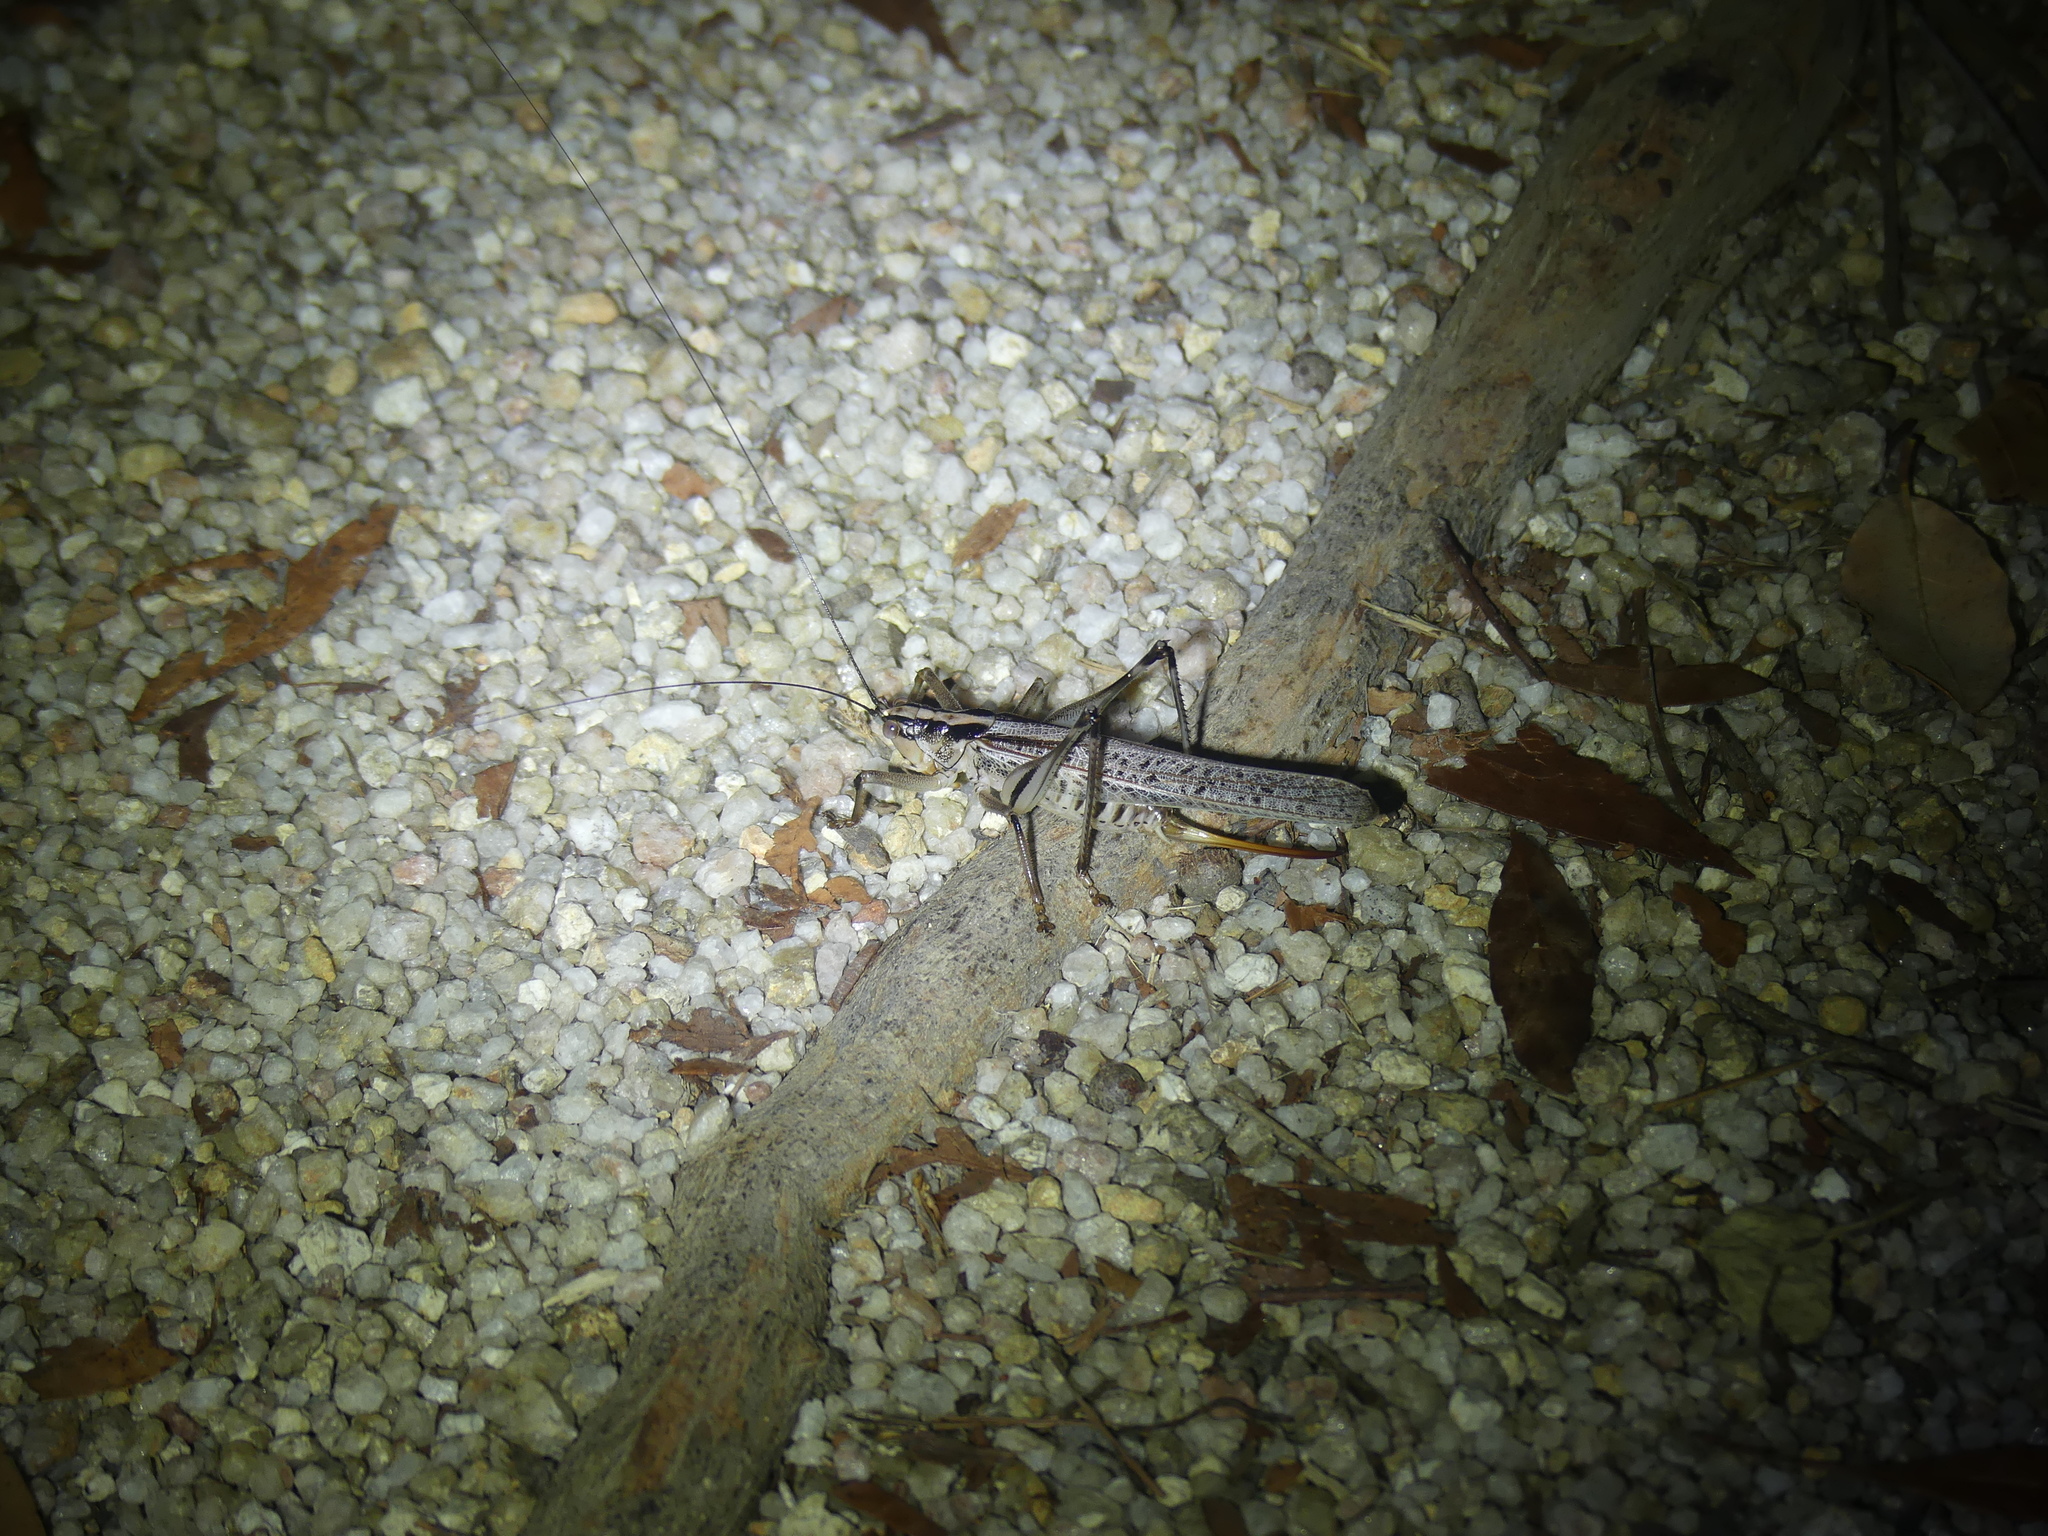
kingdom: Animalia
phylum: Arthropoda
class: Insecta
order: Orthoptera
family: Tettigoniidae
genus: Nicsara
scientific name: Nicsara bifasciata
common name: Striped nicsara
